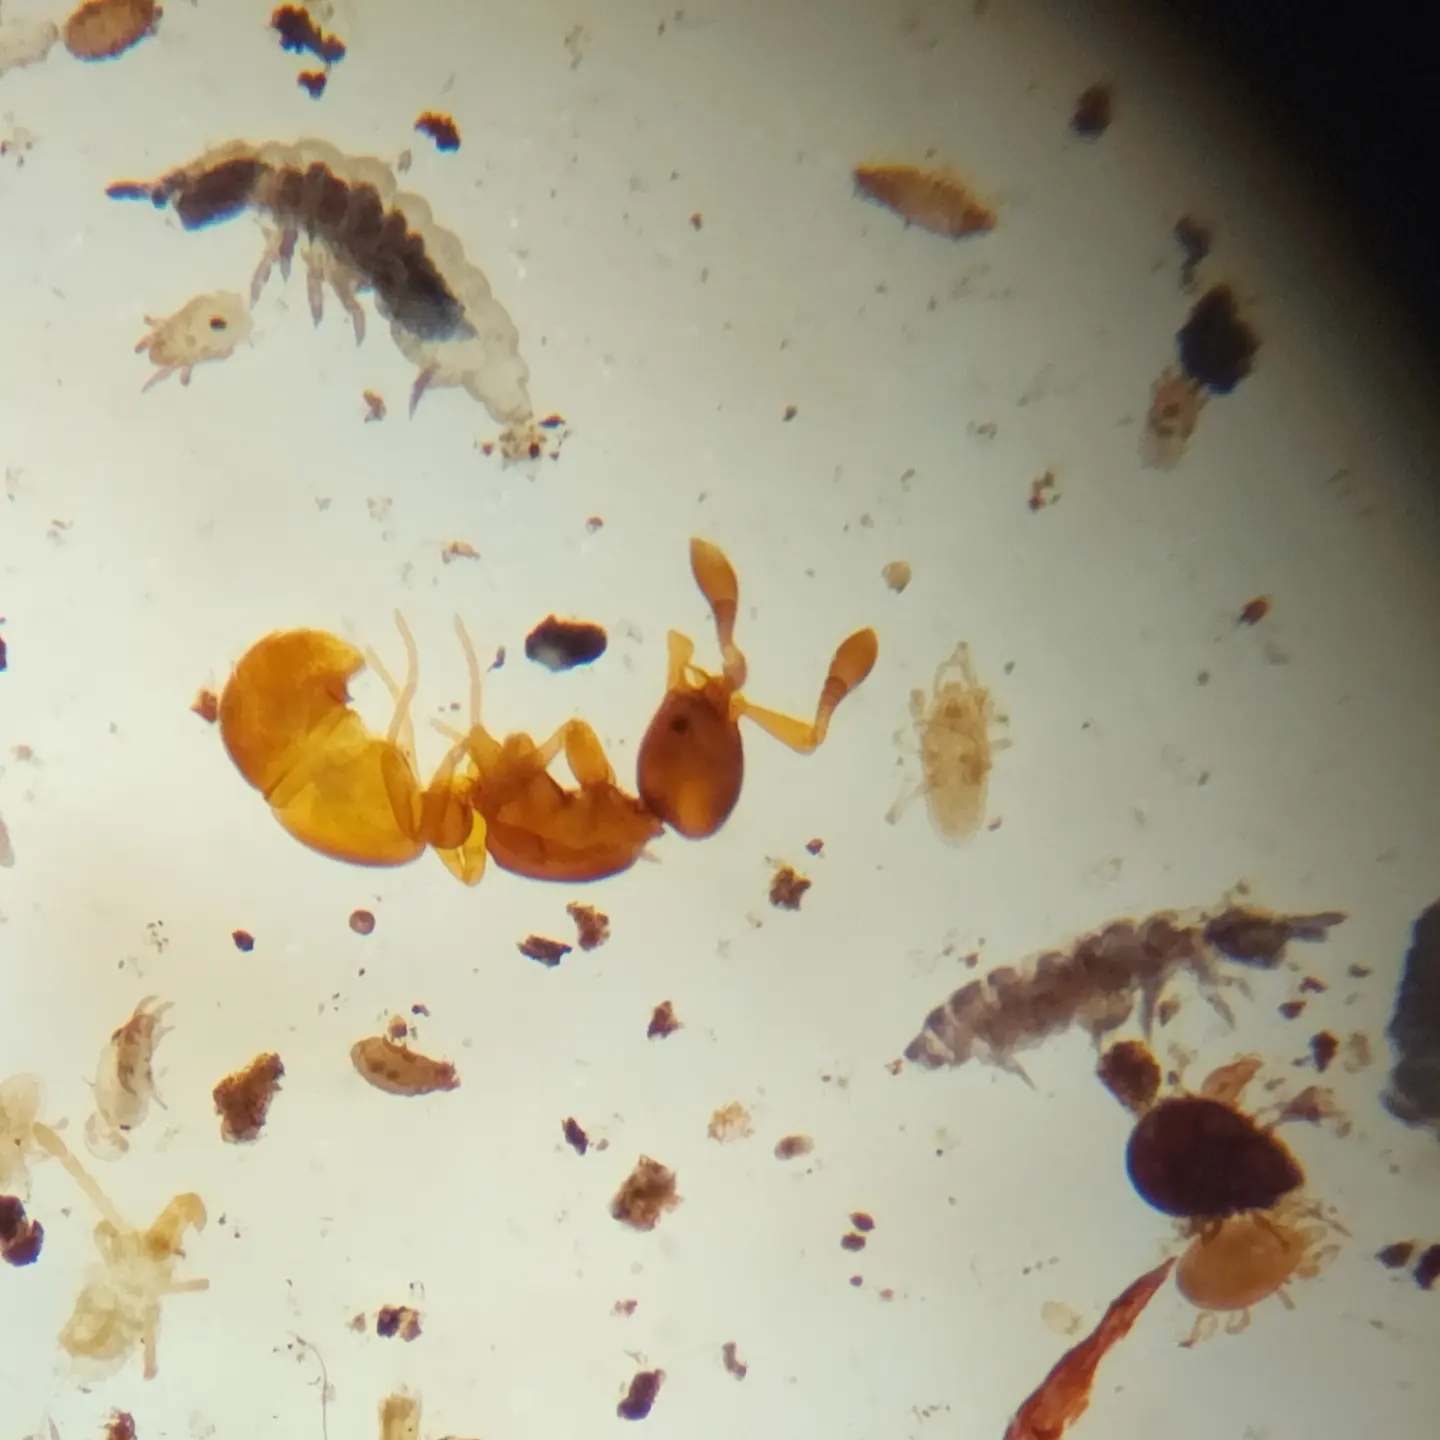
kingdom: Animalia
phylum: Arthropoda
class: Insecta
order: Hymenoptera
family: Formicidae
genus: Discothyrea
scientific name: Discothyrea antarctica
